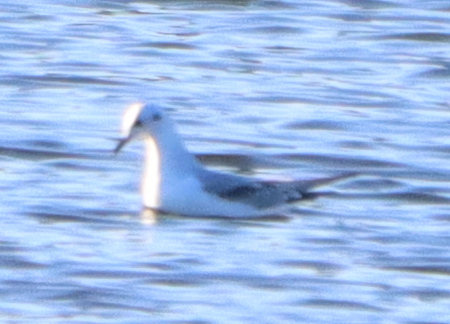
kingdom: Animalia
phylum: Chordata
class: Aves
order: Charadriiformes
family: Laridae
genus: Chroicocephalus
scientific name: Chroicocephalus philadelphia
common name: Bonaparte's gull
